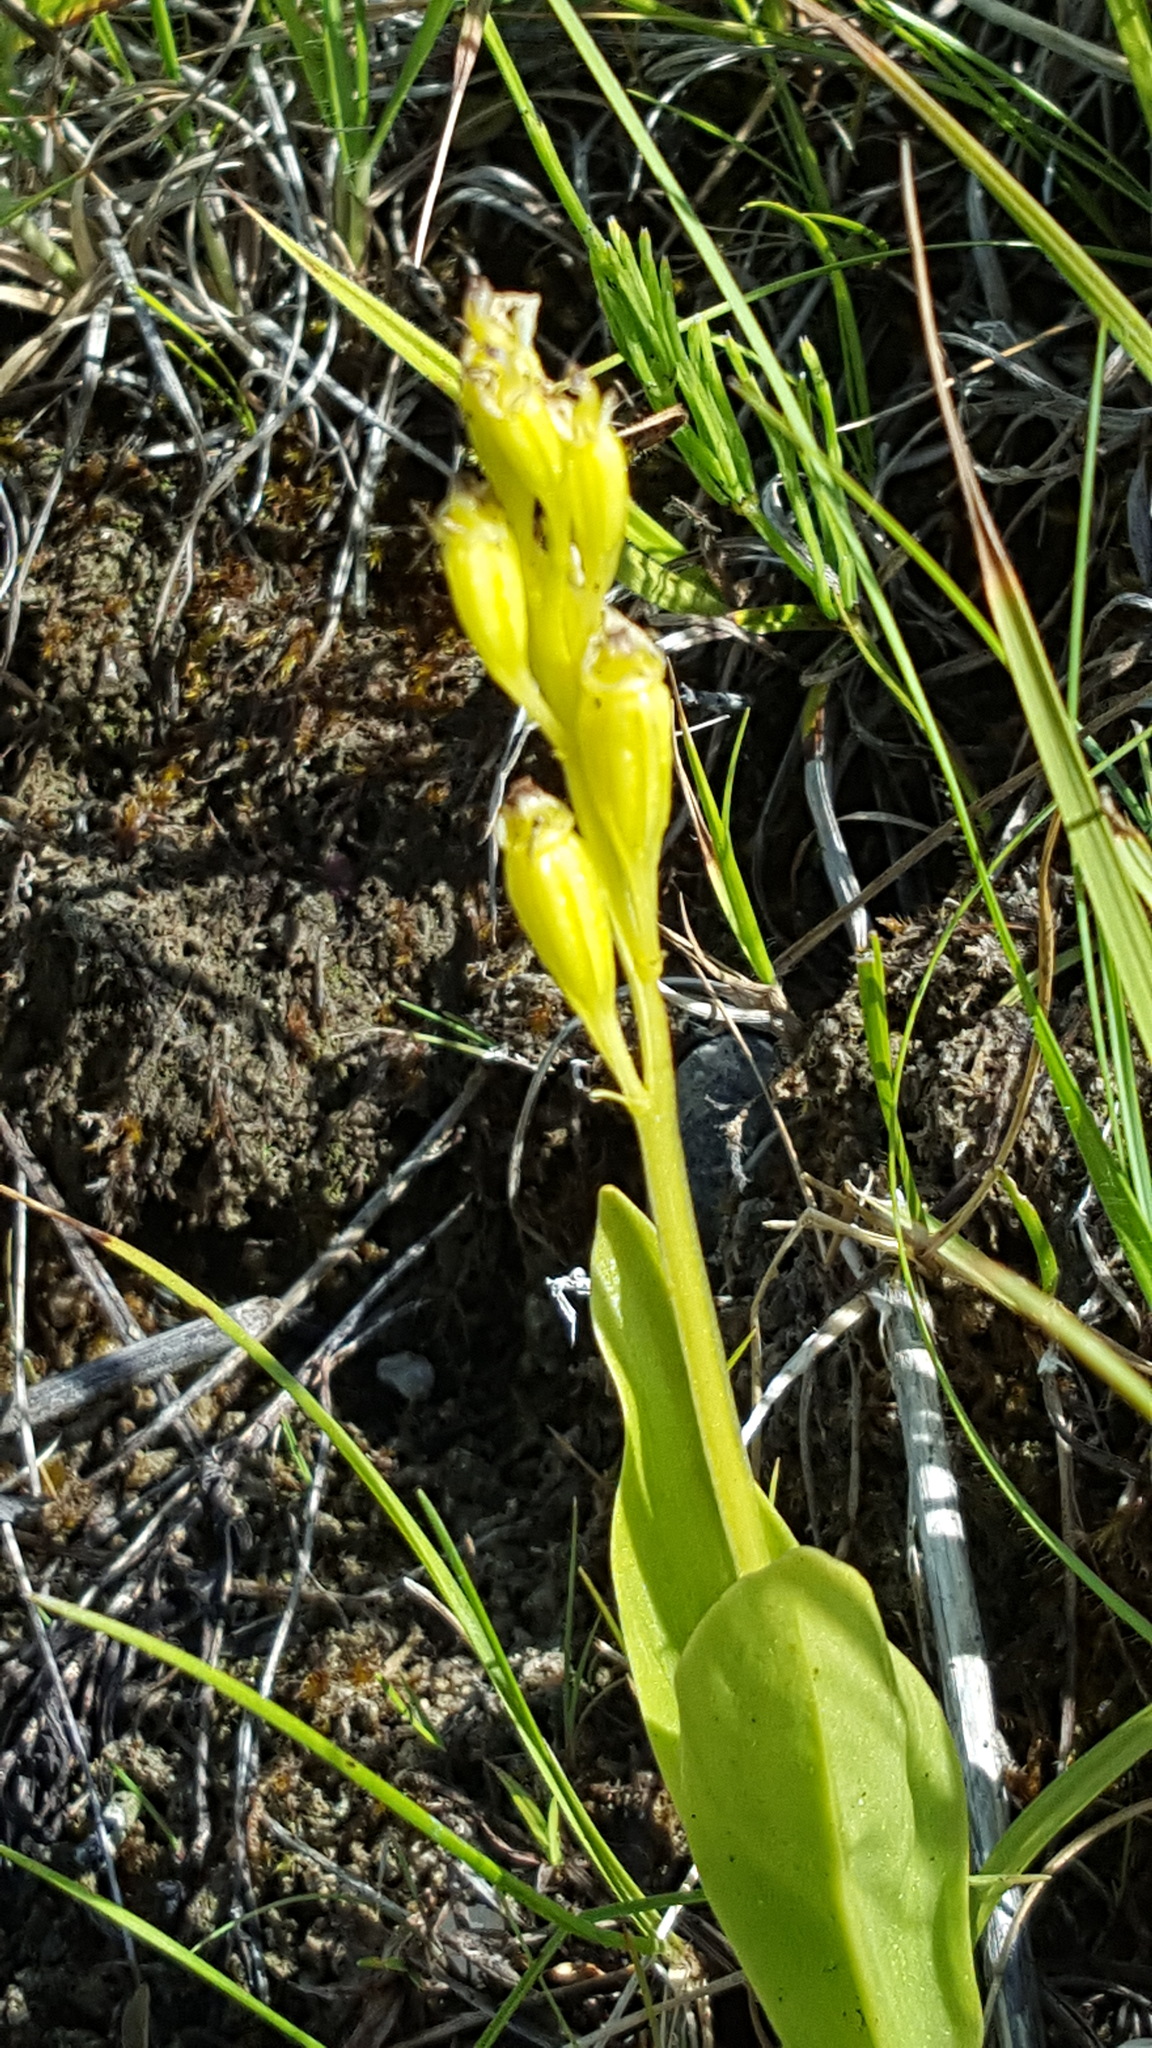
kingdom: Animalia
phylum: Arthropoda
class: Insecta
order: Coleoptera
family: Curculionidae
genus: Liparis
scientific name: Liparis loeselii
